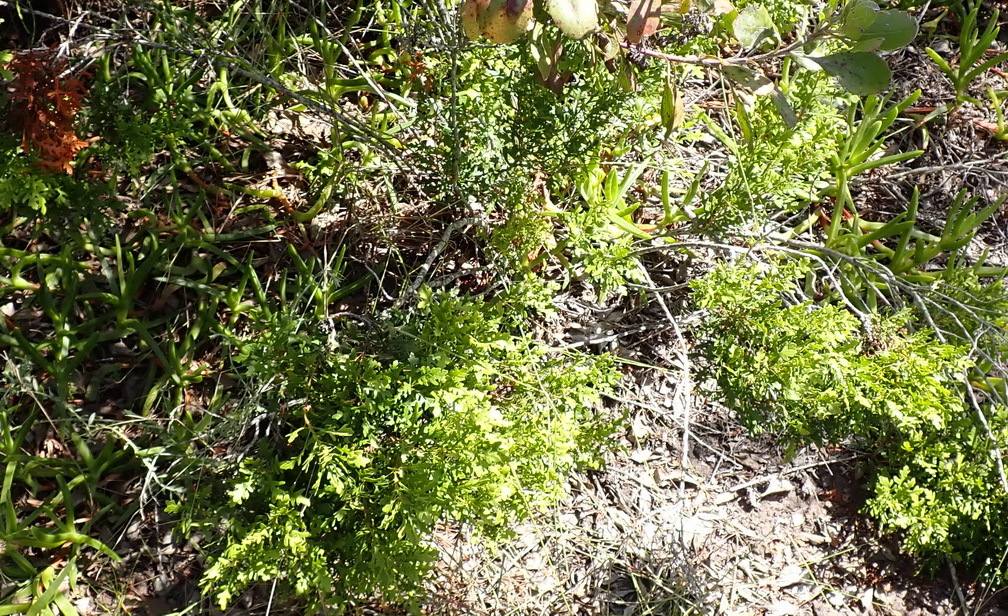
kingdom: Plantae
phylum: Tracheophyta
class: Magnoliopsida
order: Fagales
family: Myricaceae
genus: Morella
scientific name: Morella quercifolia
